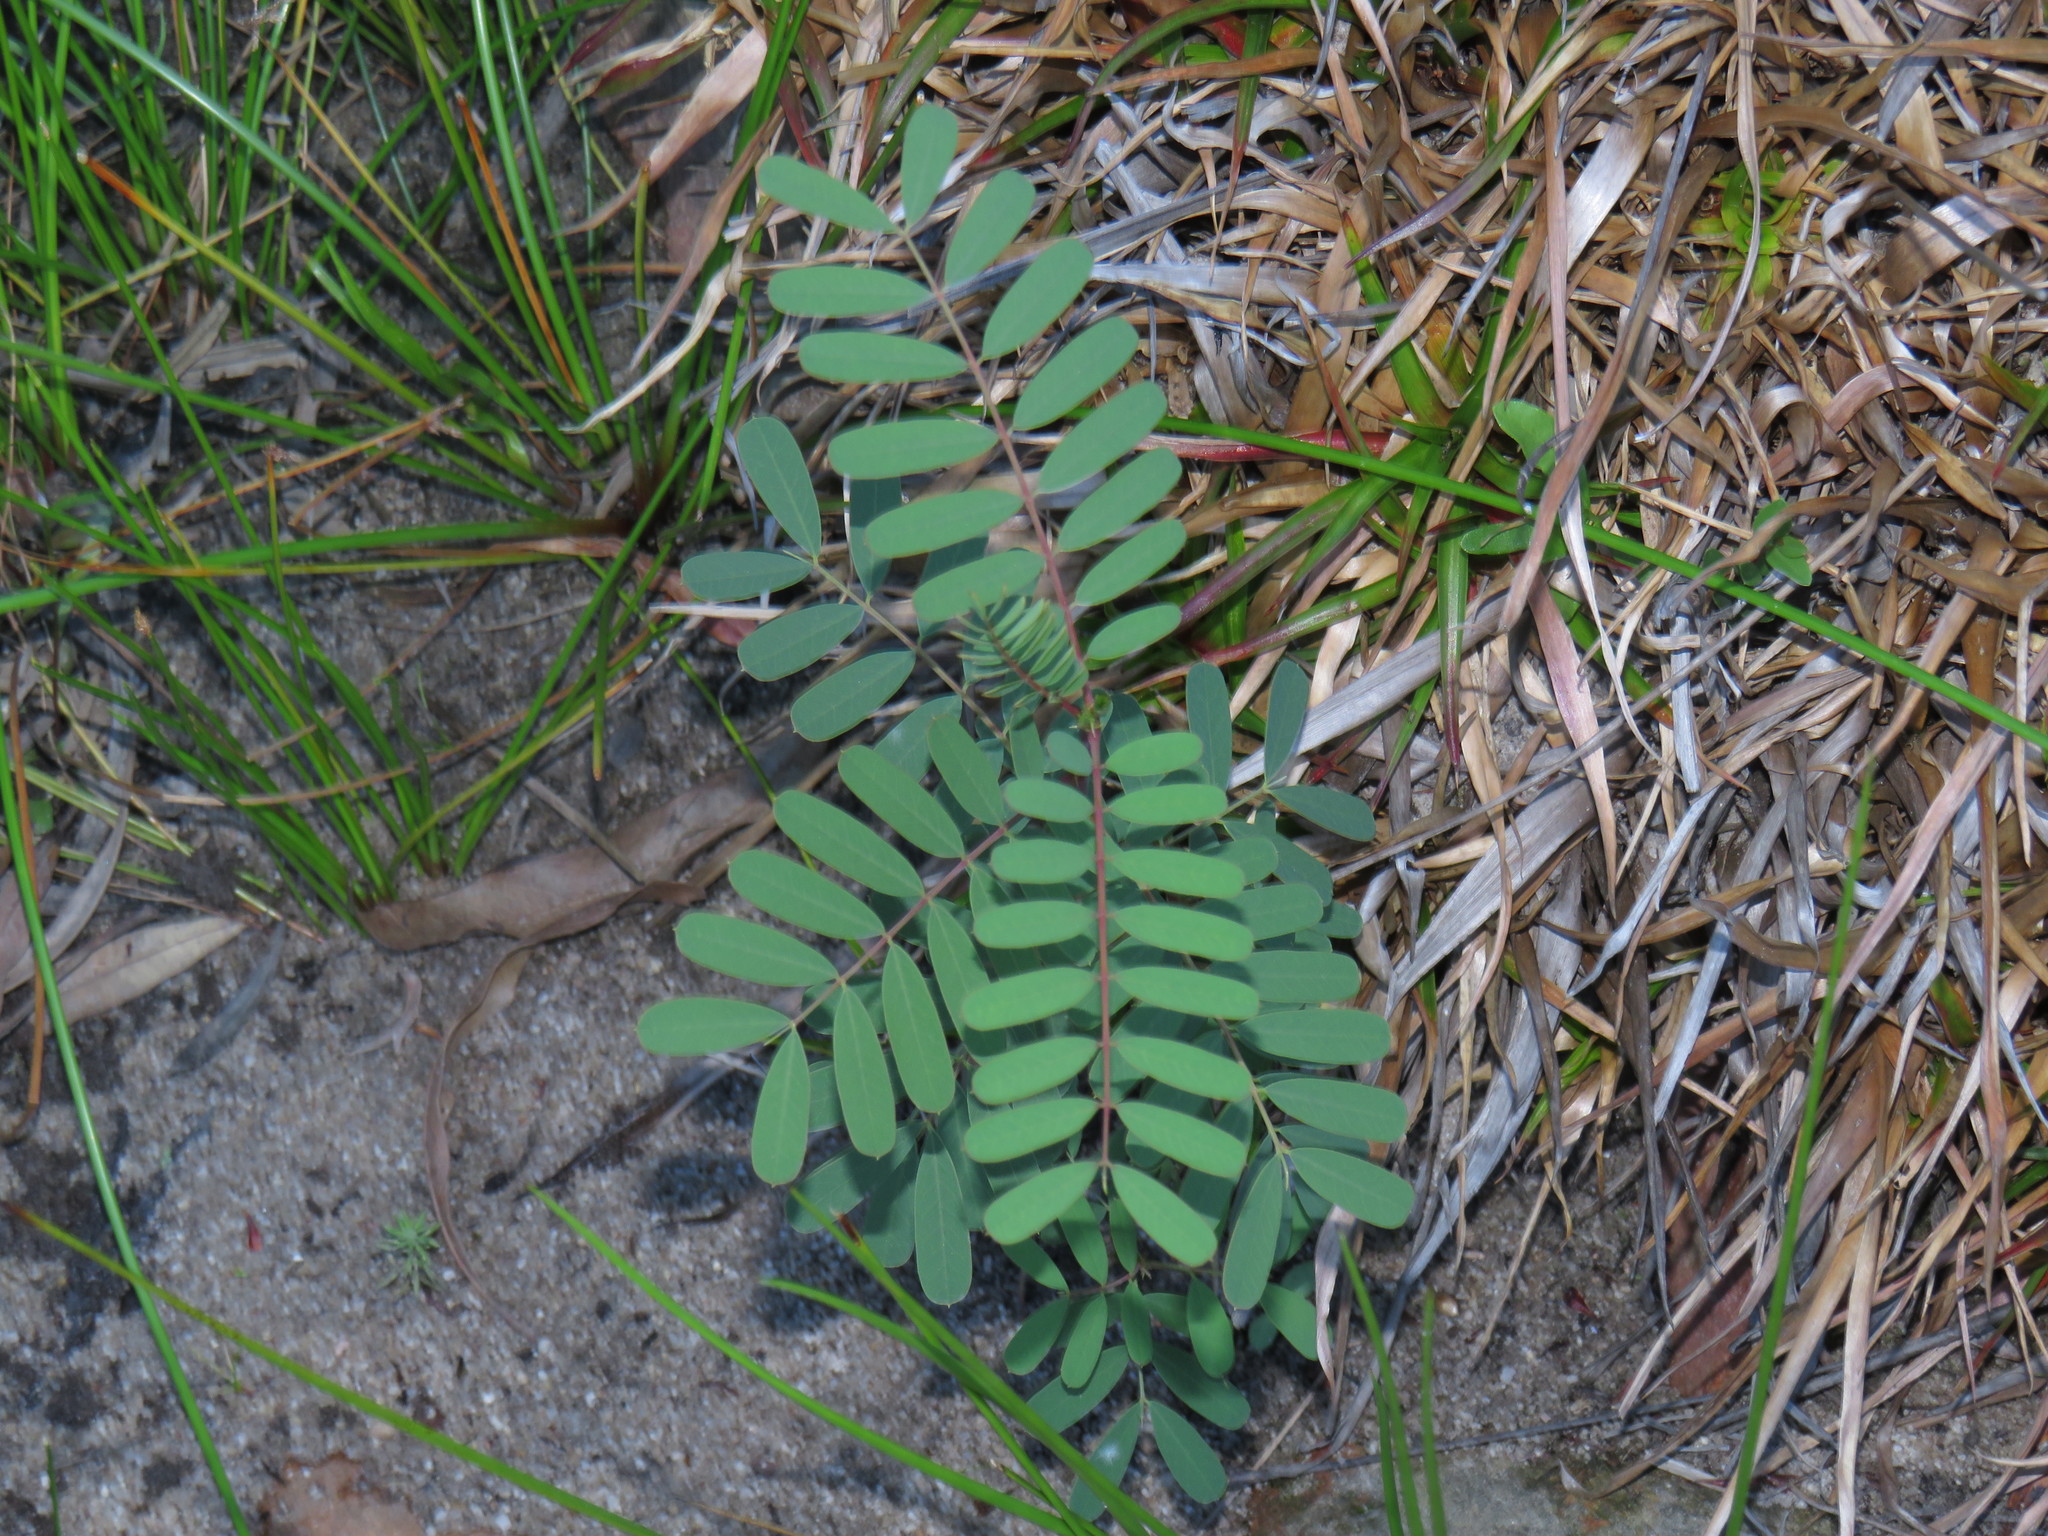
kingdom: Plantae
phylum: Tracheophyta
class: Magnoliopsida
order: Fabales
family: Fabaceae
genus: Sesbania
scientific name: Sesbania punicea
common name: Rattlebox
